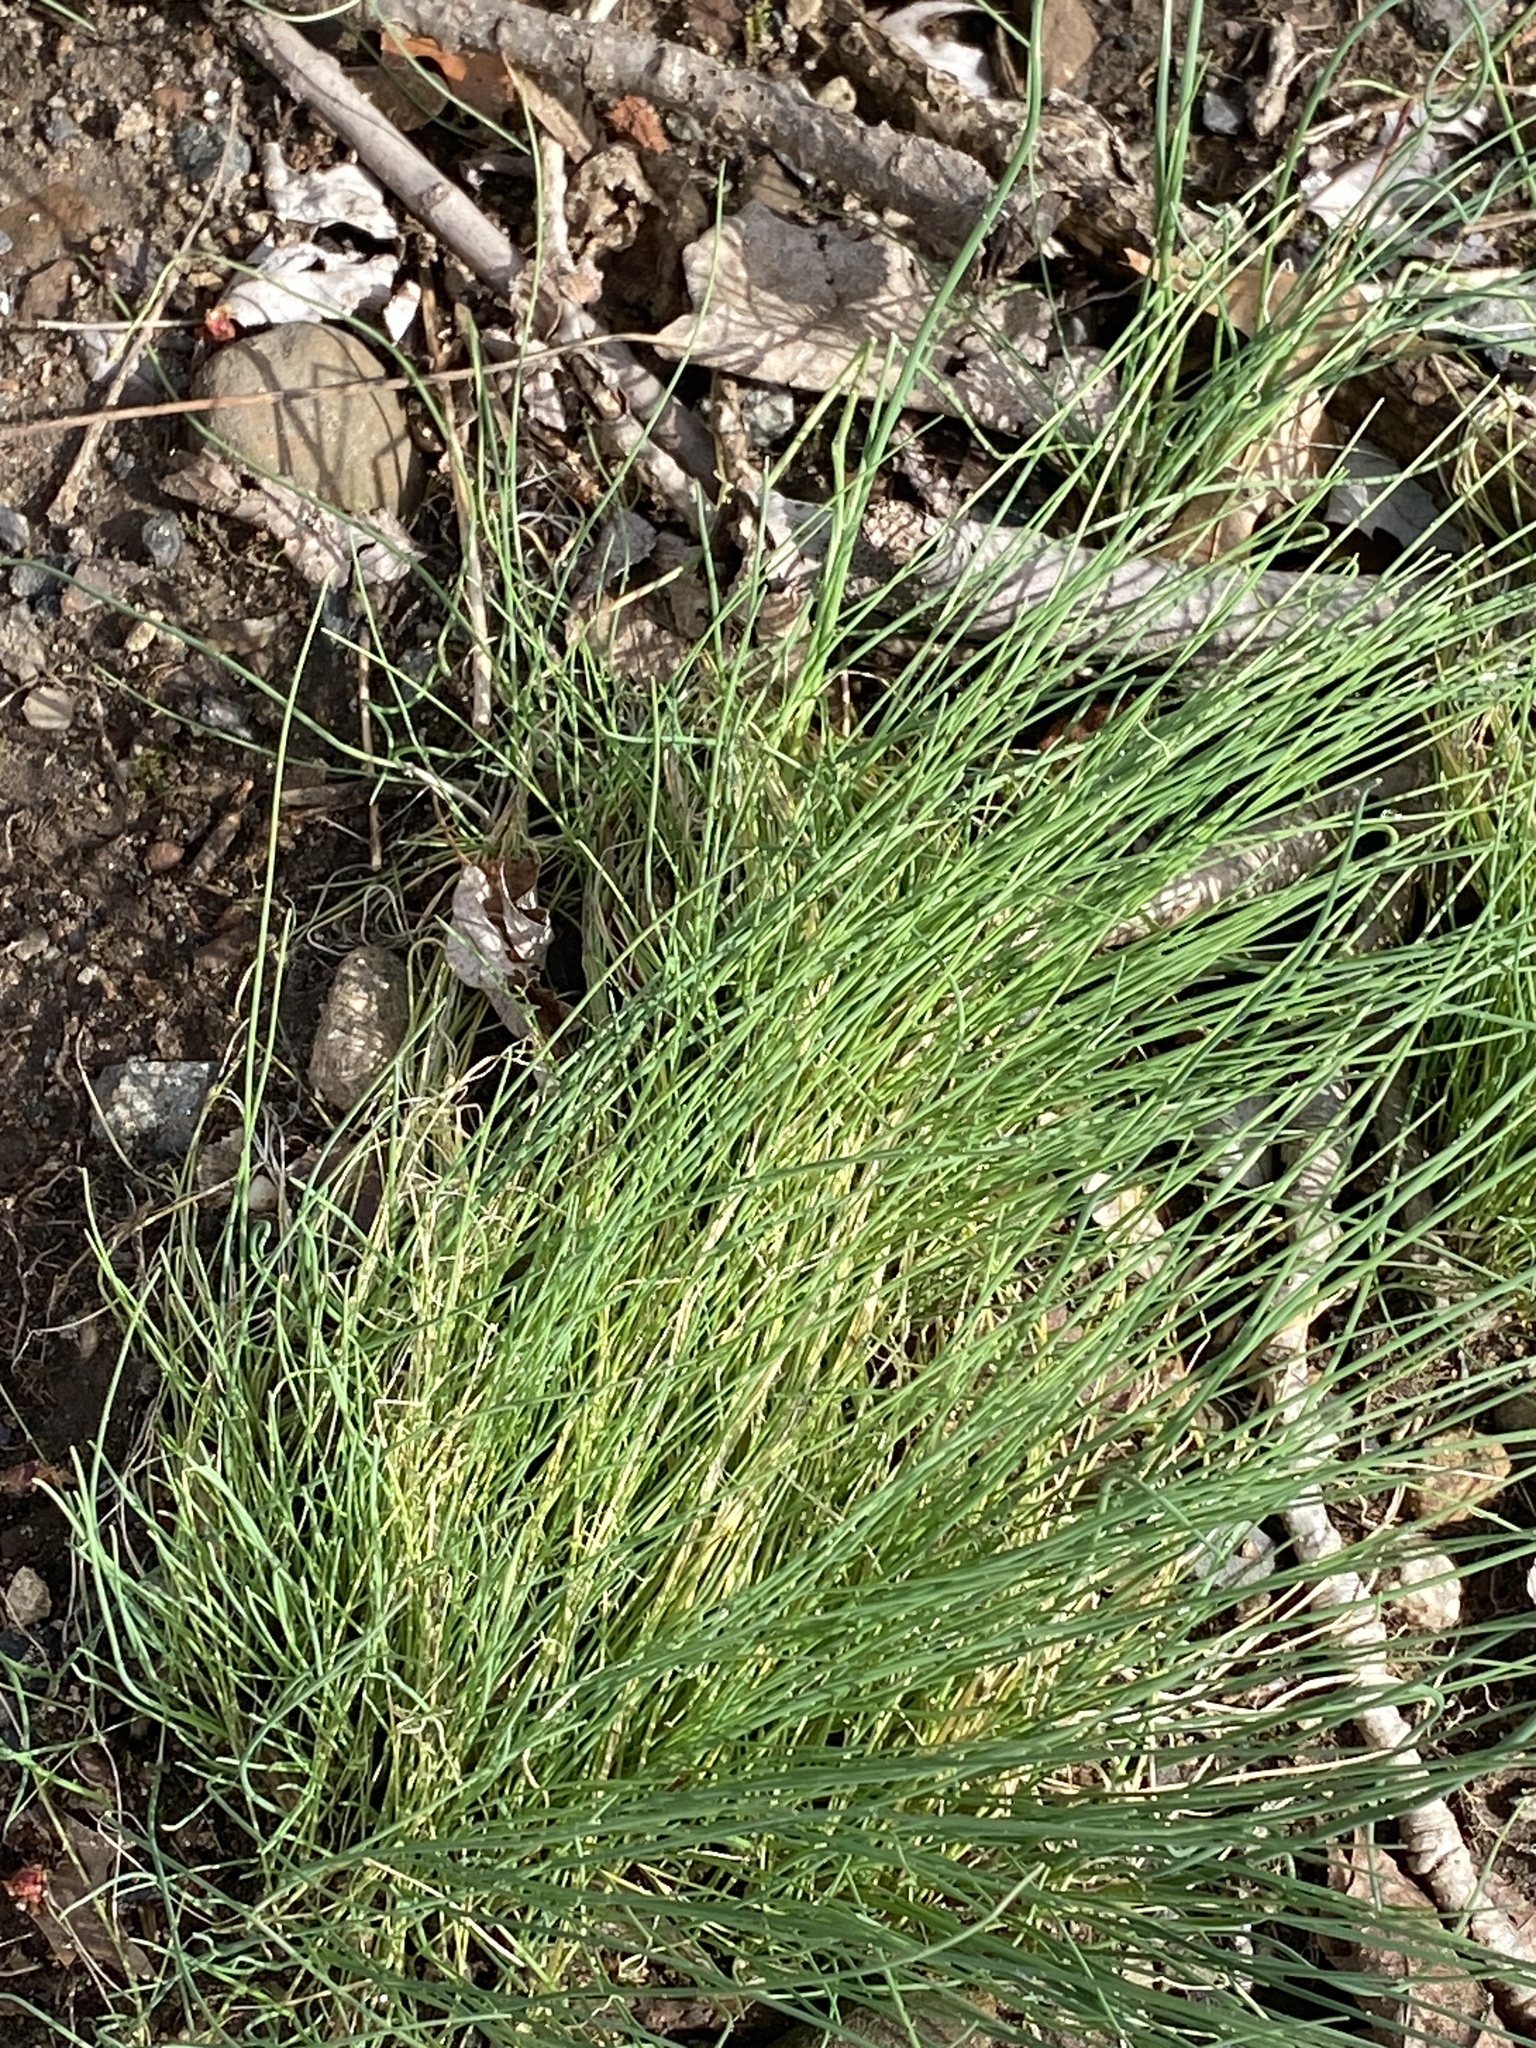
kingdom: Plantae
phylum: Tracheophyta
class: Liliopsida
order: Asparagales
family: Amaryllidaceae
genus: Allium
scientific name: Allium vineale
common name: Crow garlic
